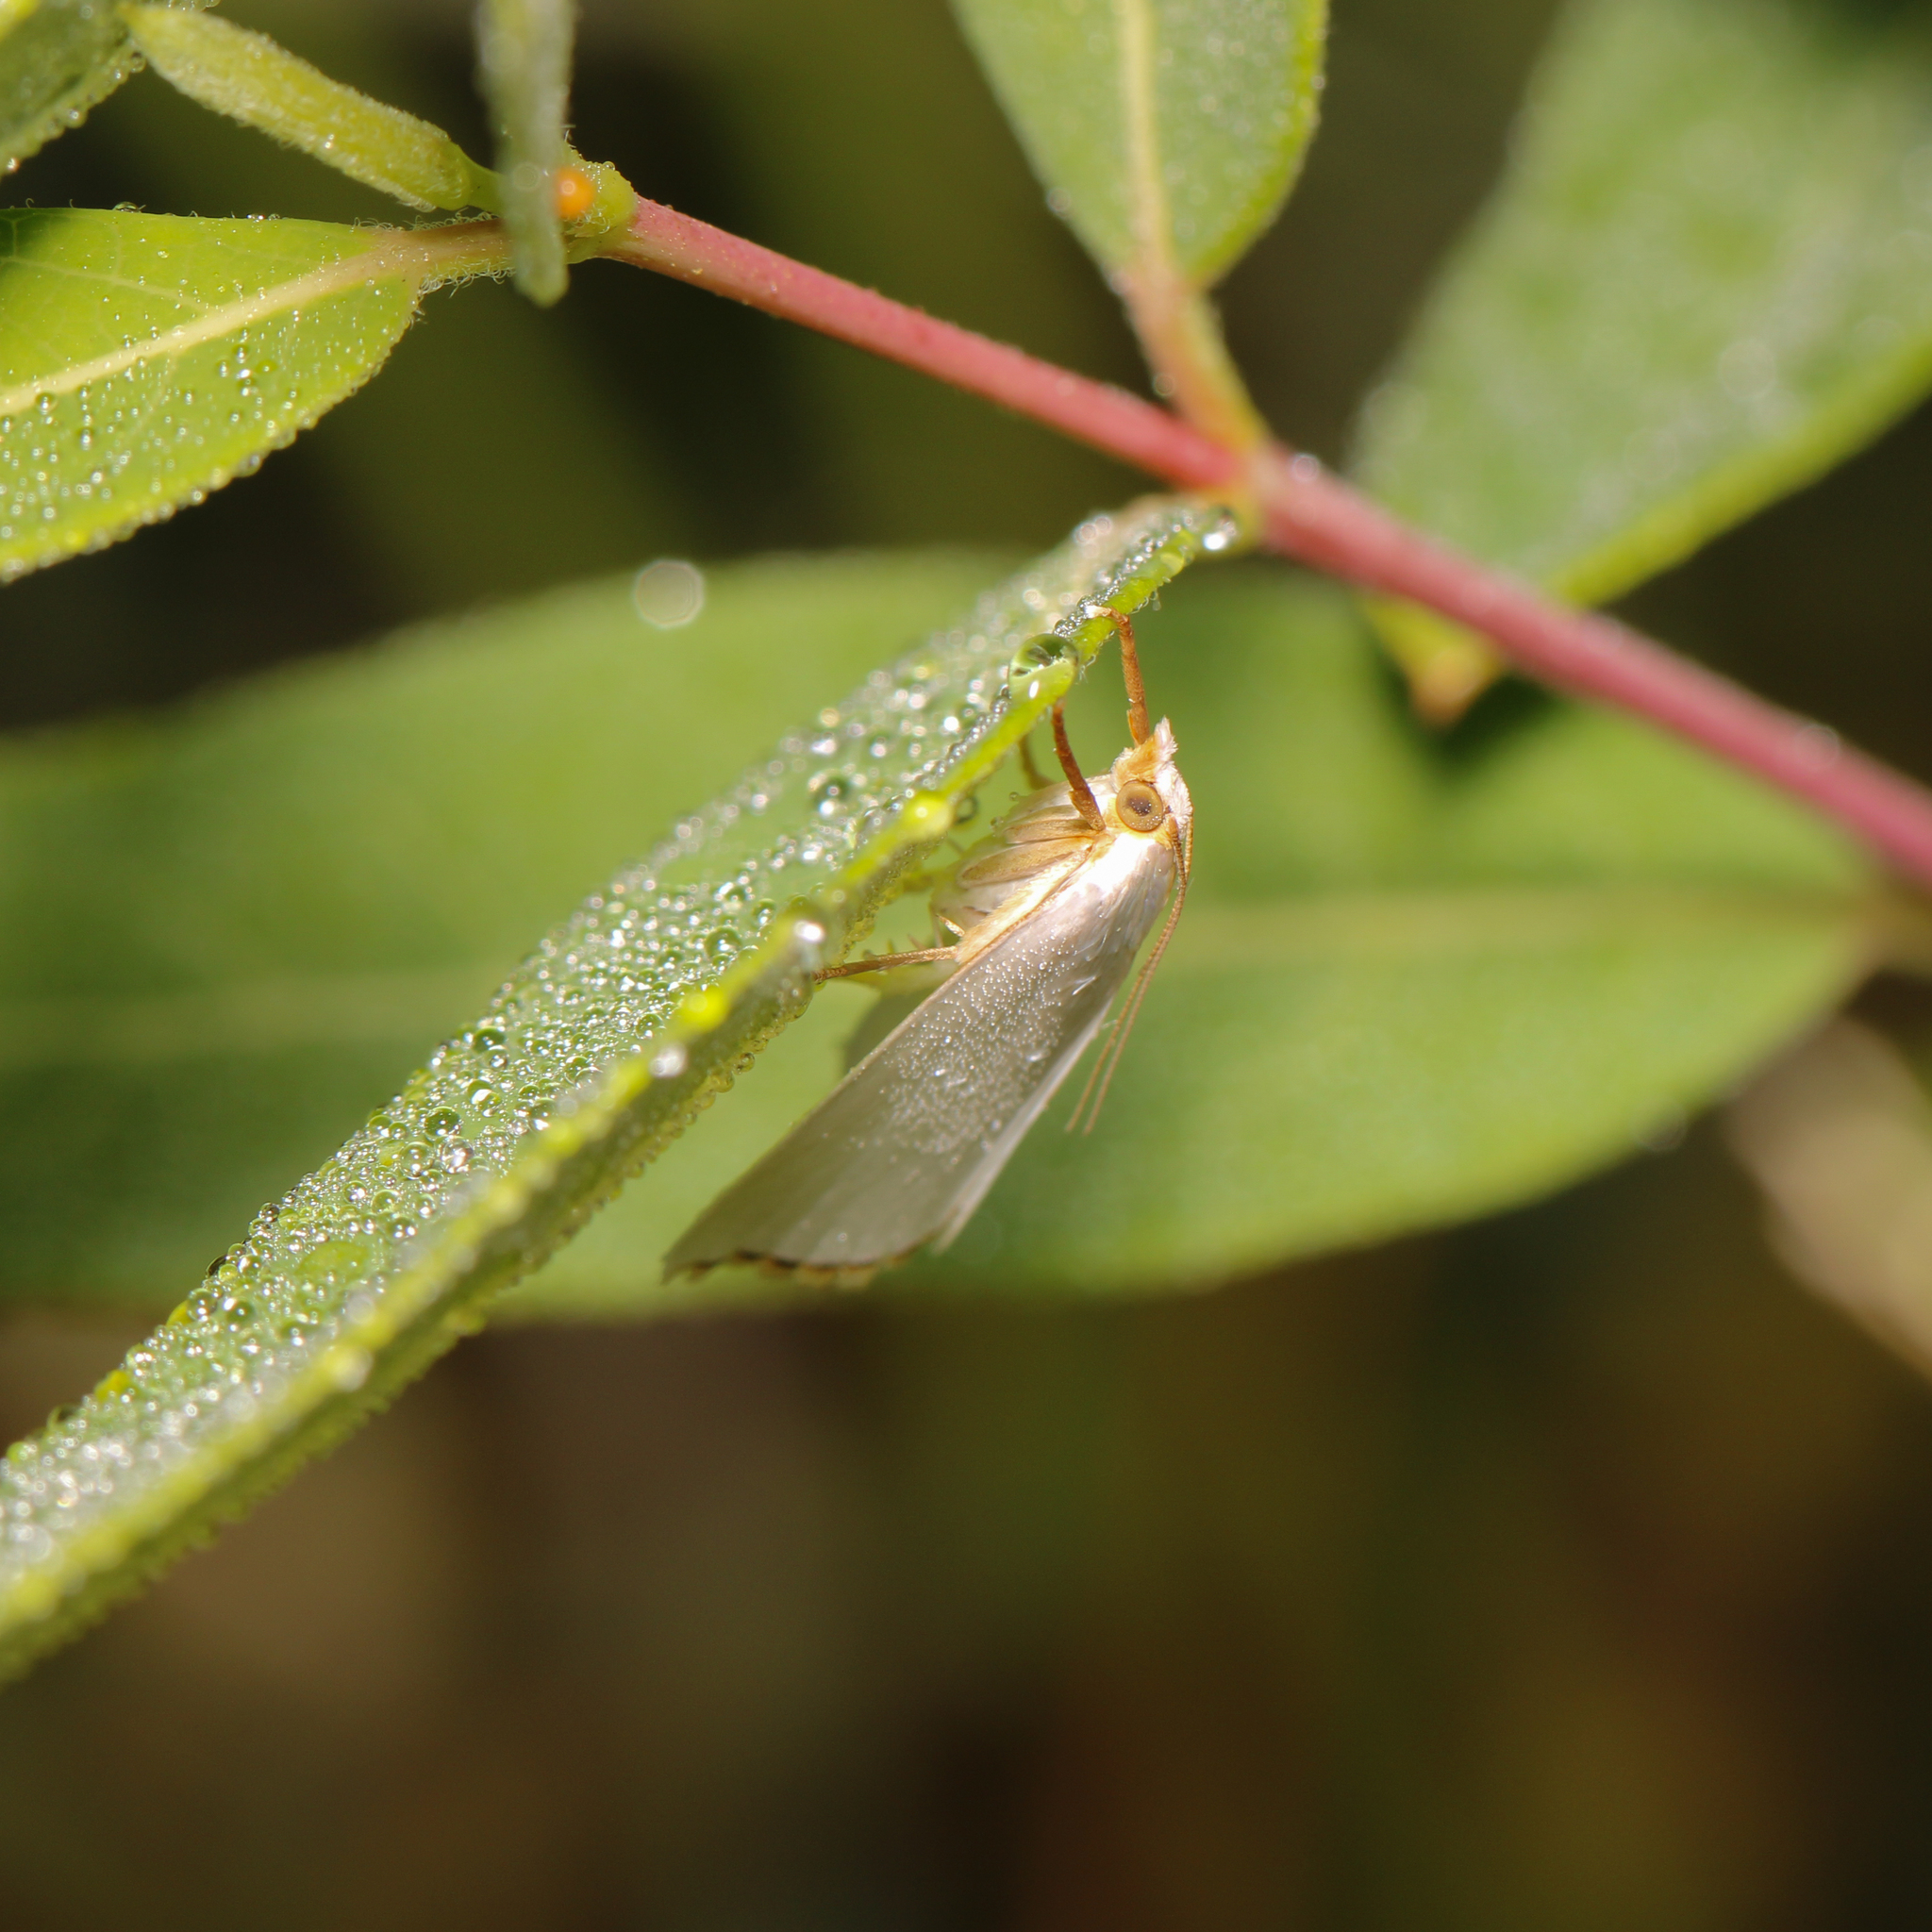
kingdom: Animalia
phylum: Arthropoda
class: Insecta
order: Lepidoptera
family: Crambidae
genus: Argyria
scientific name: Argyria nivalis
